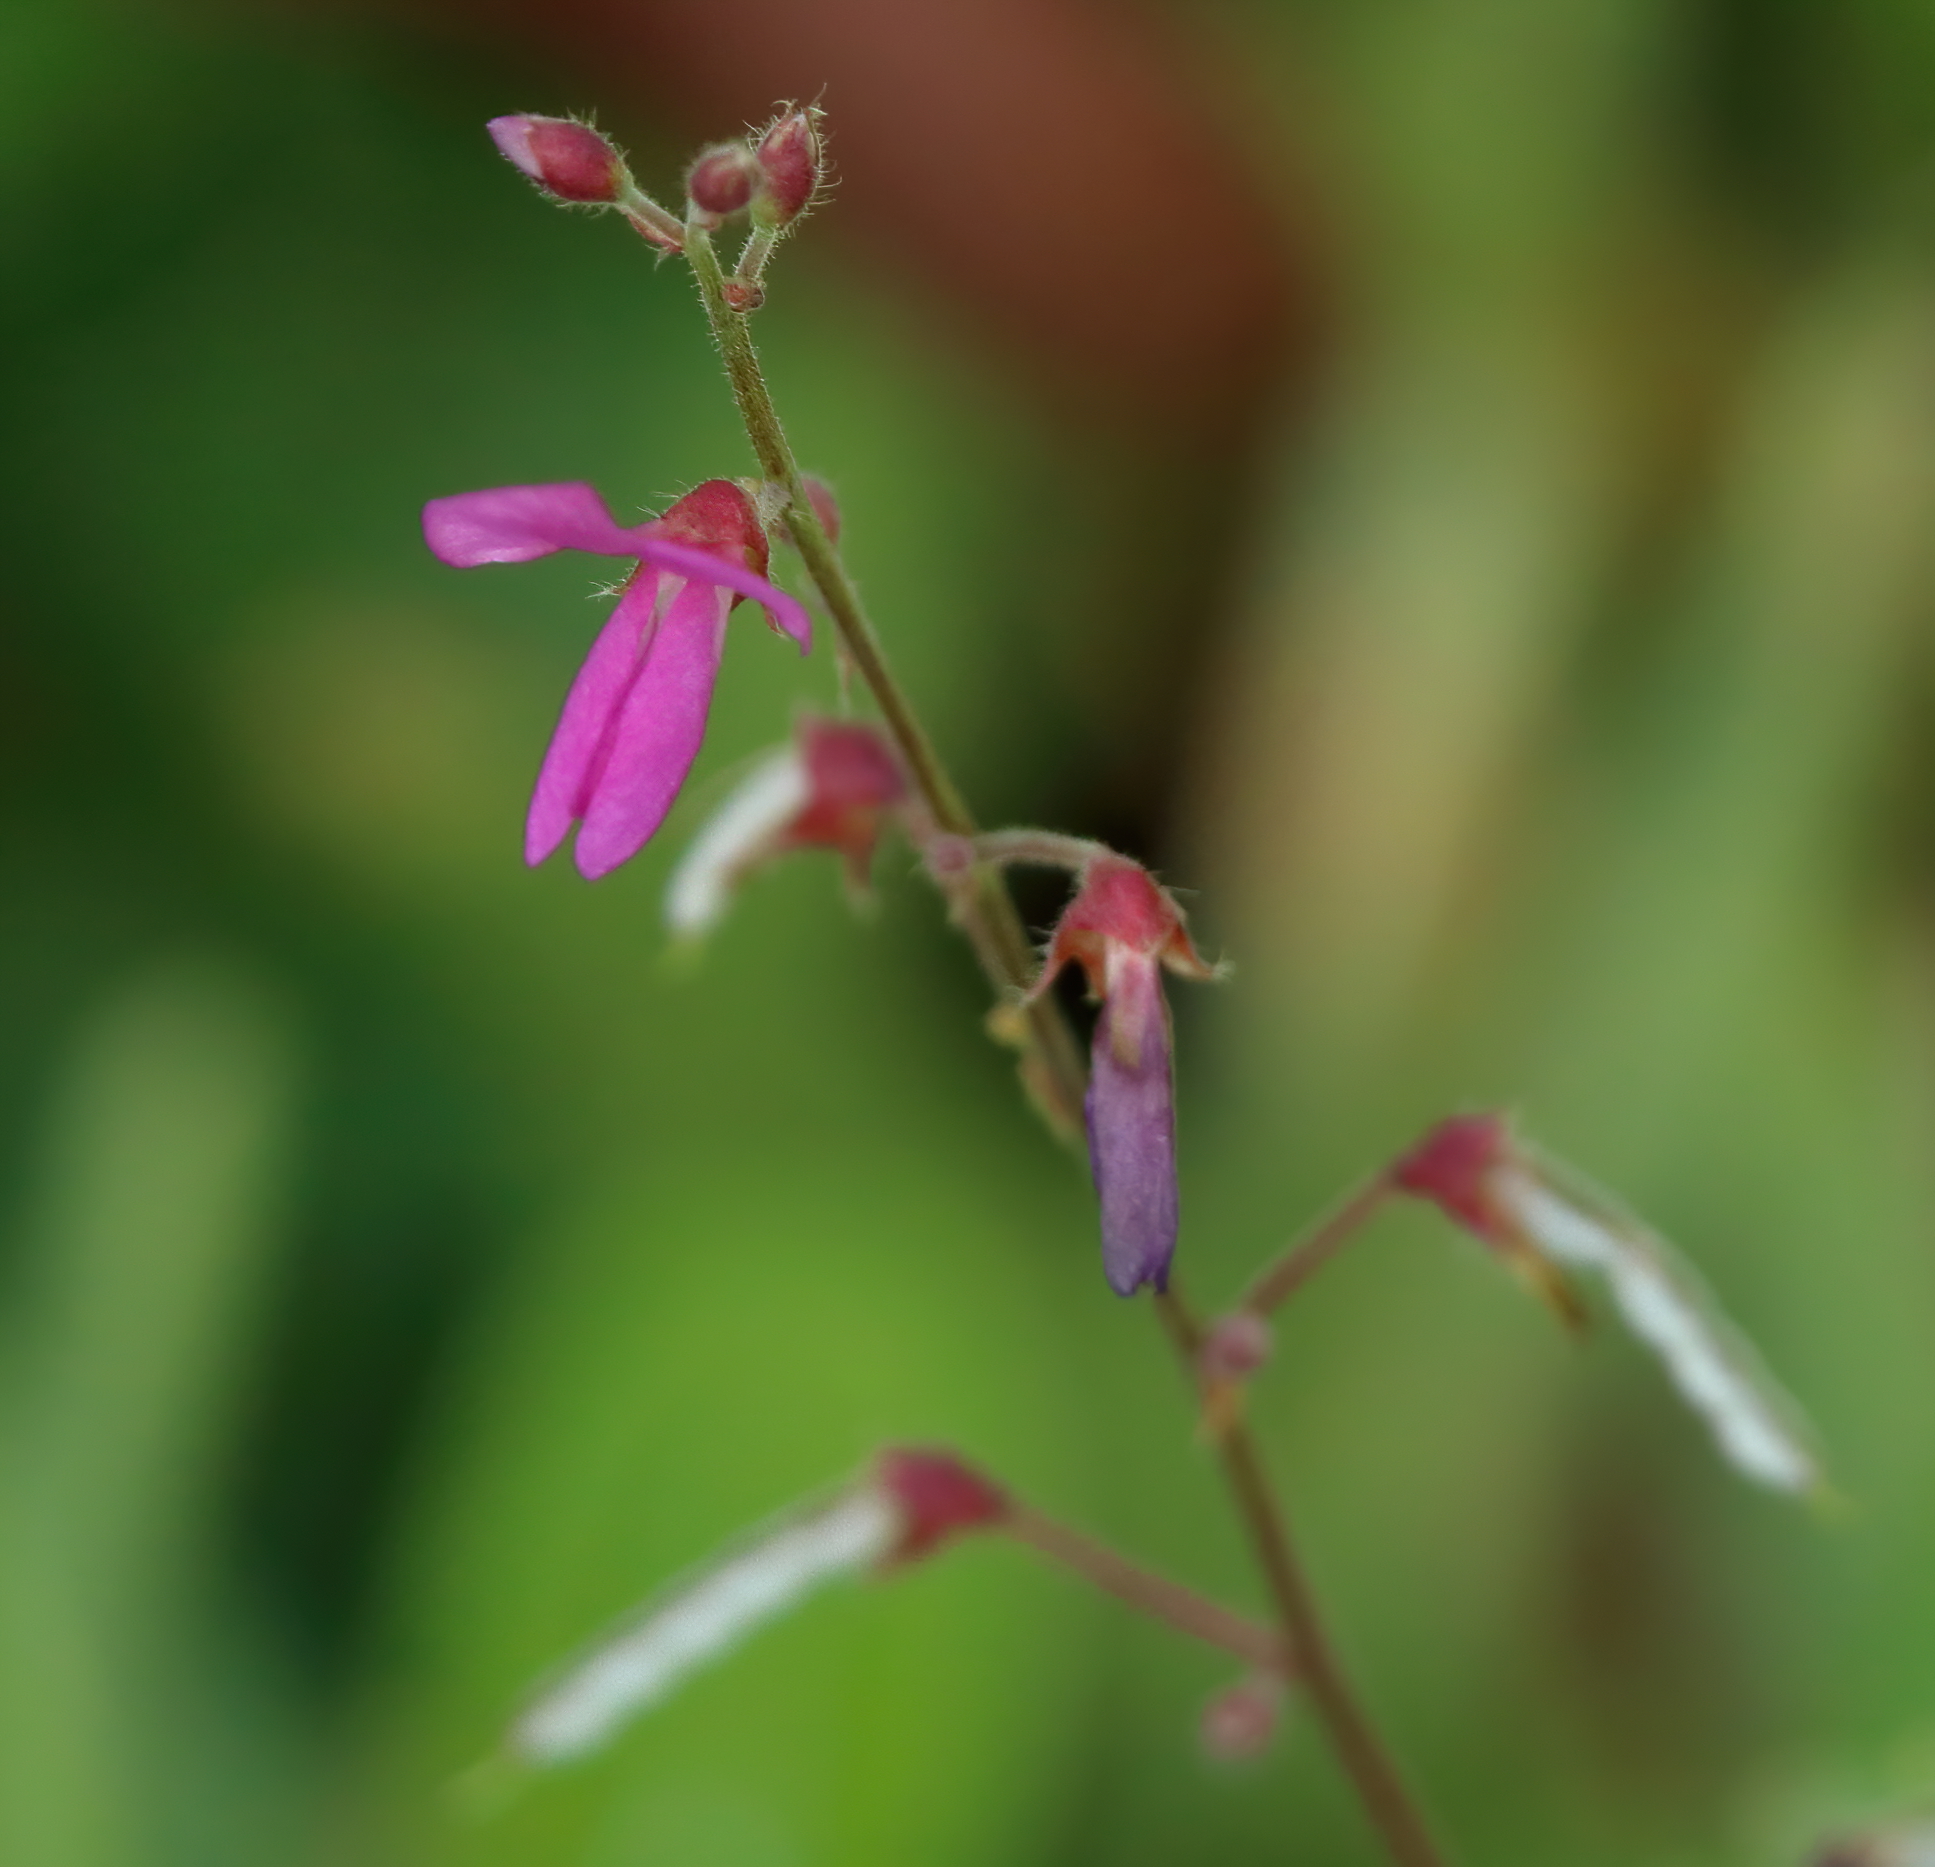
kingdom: Plantae
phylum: Tracheophyta
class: Magnoliopsida
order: Fabales
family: Fabaceae
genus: Desmodium
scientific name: Desmodium incanum
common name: Tickclover
